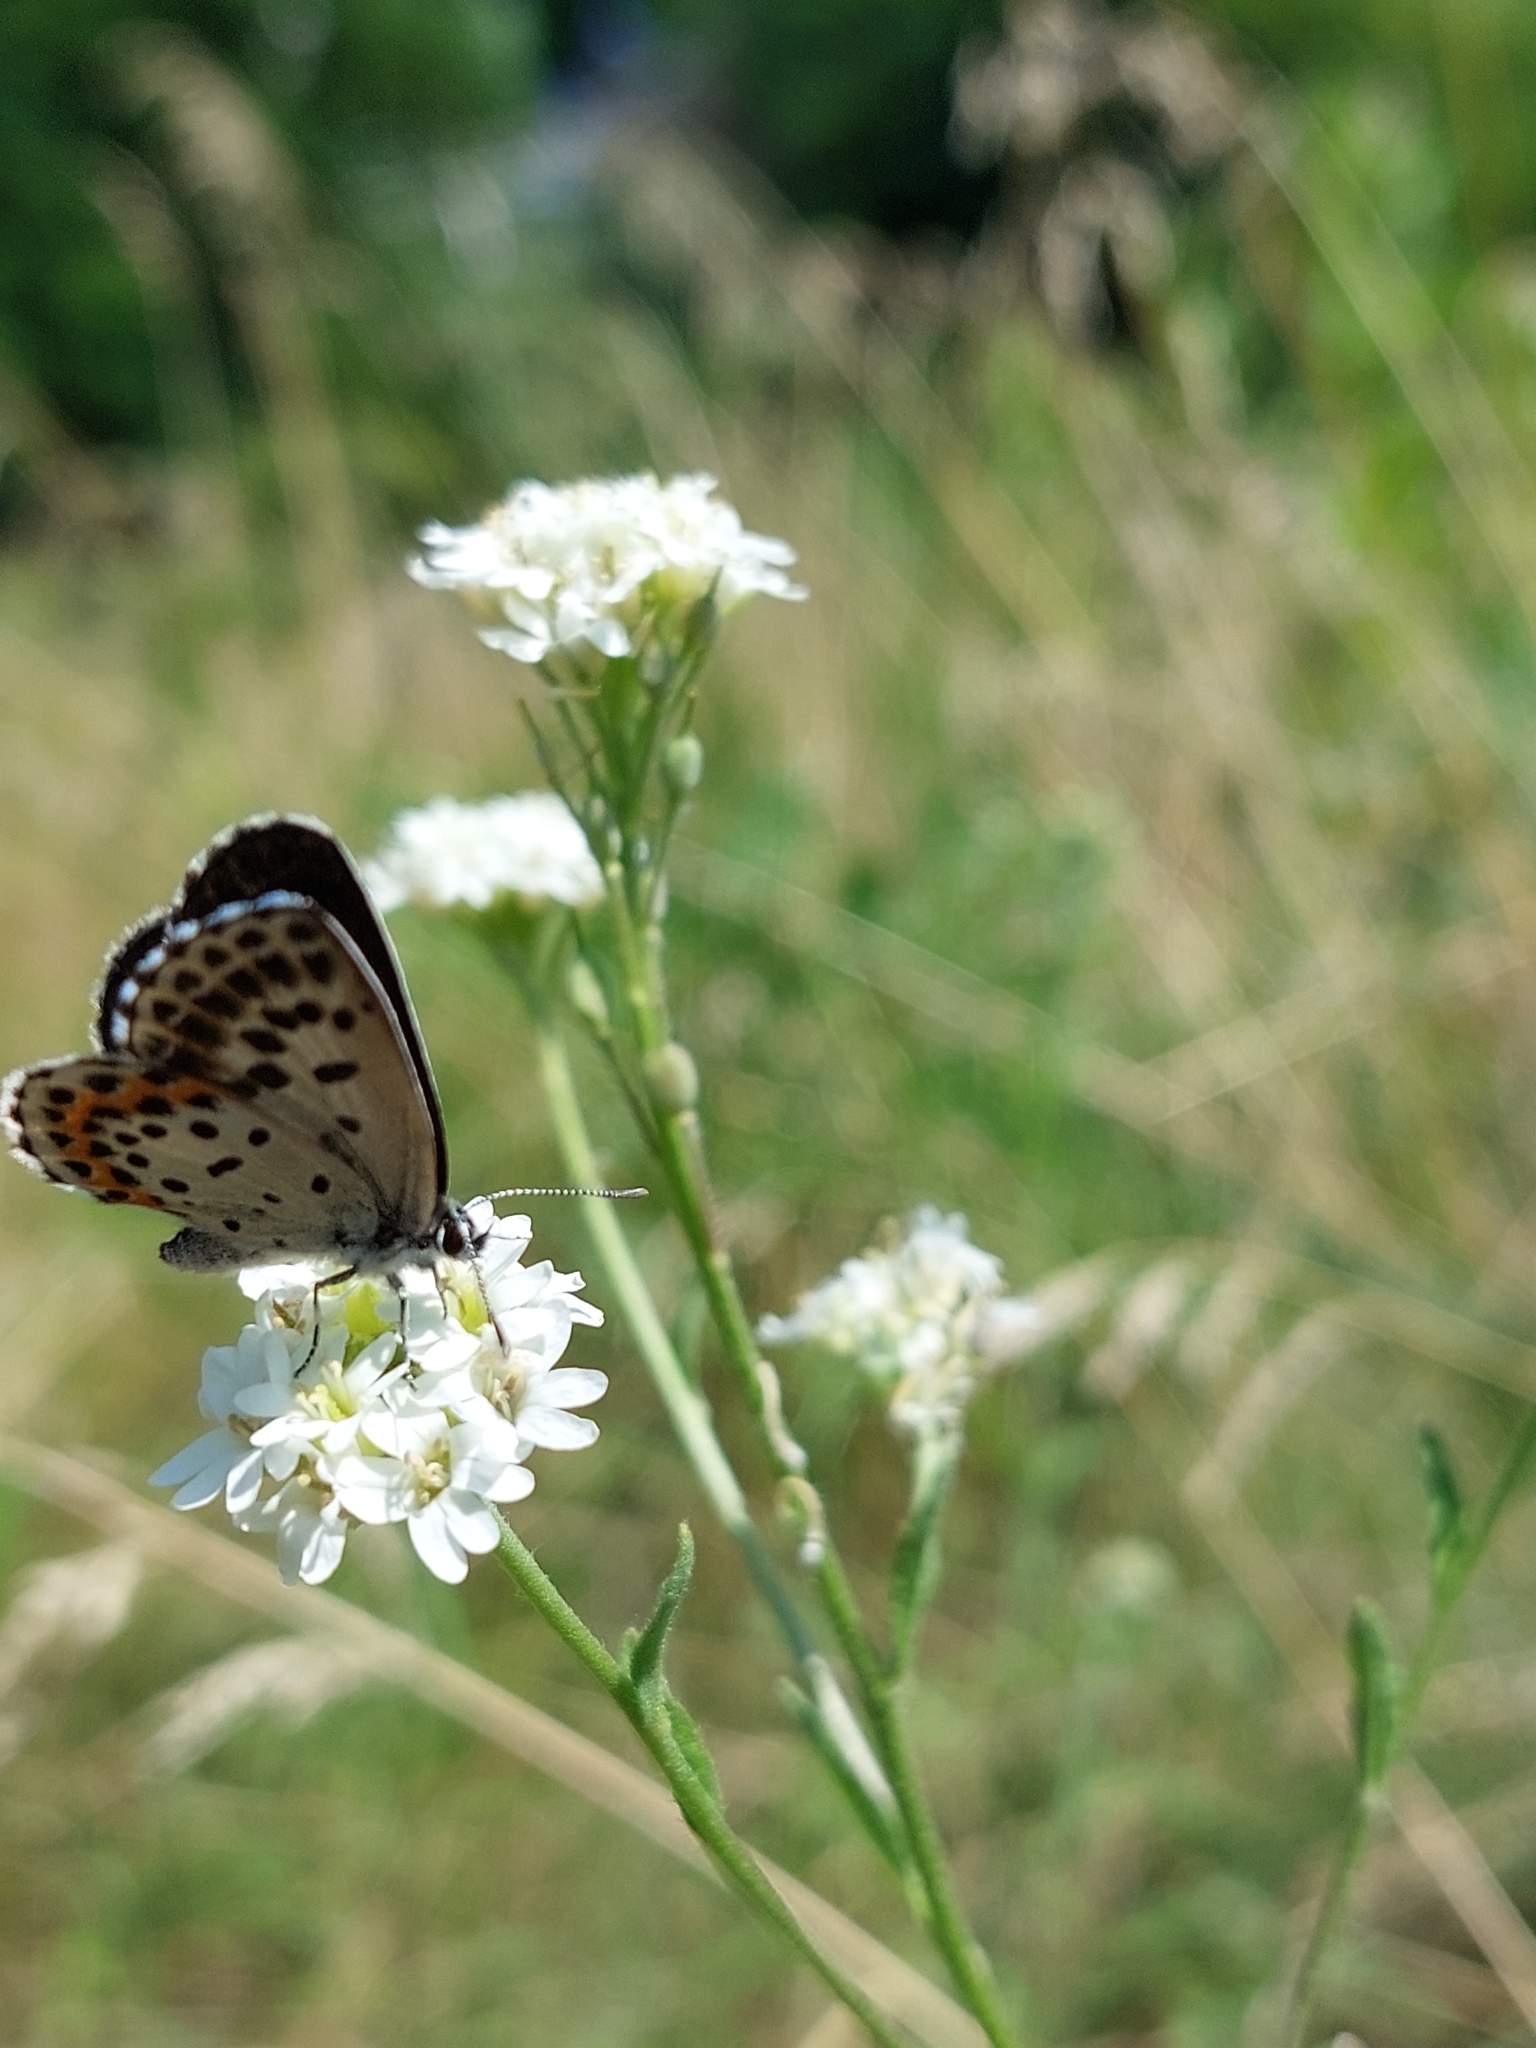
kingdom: Animalia
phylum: Arthropoda
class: Insecta
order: Lepidoptera
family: Lycaenidae
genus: Scolitantides
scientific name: Scolitantides orion
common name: Chequered blue
